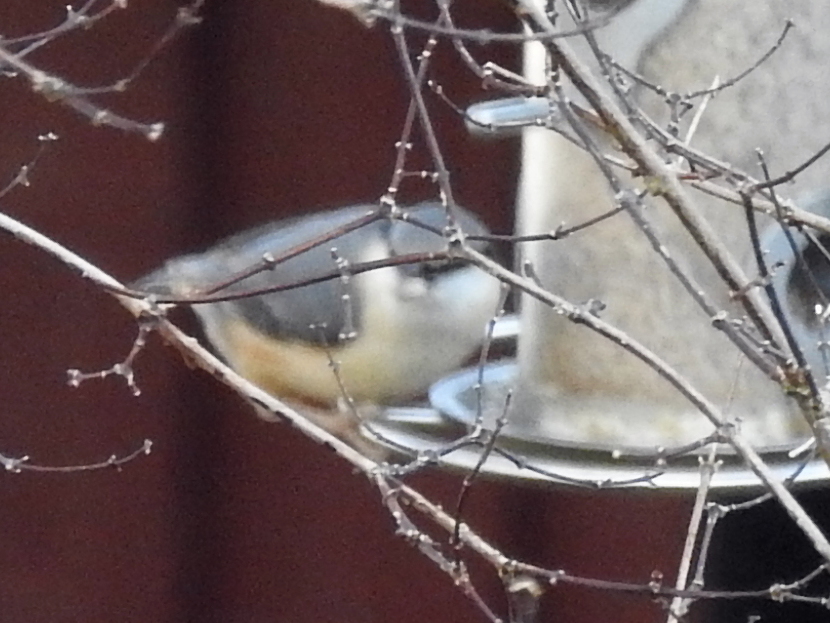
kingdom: Animalia
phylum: Chordata
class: Aves
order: Passeriformes
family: Sittidae
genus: Sitta
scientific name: Sitta europaea
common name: Eurasian nuthatch
